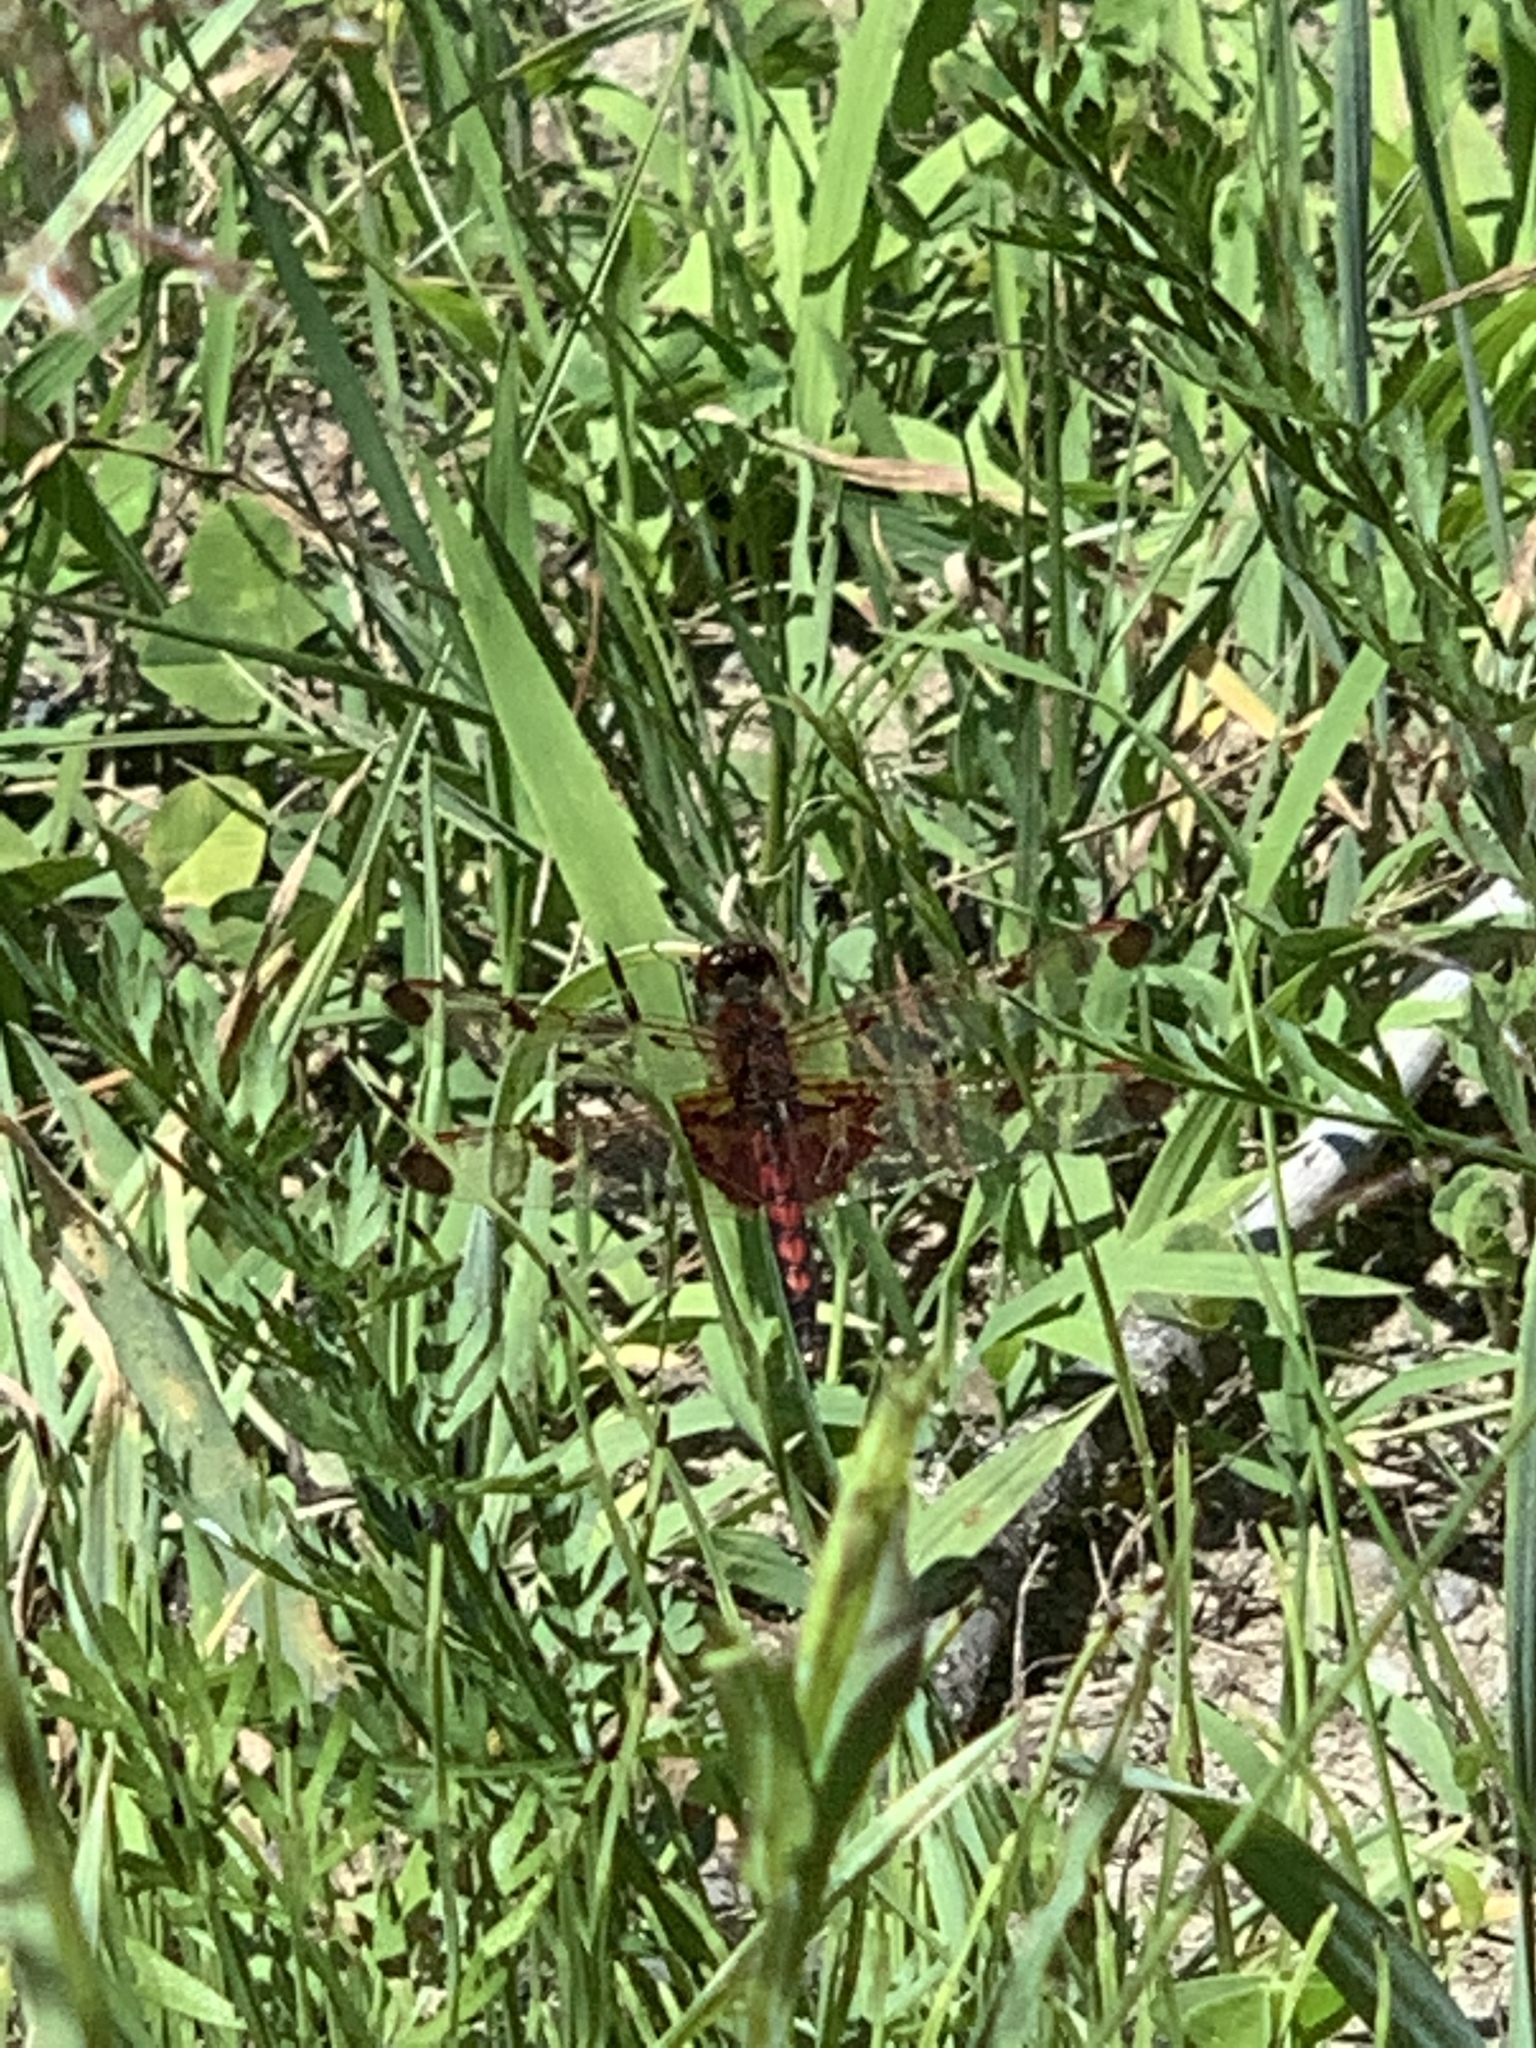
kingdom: Animalia
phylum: Arthropoda
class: Insecta
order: Odonata
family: Libellulidae
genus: Celithemis
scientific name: Celithemis elisa
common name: Calico pennant
